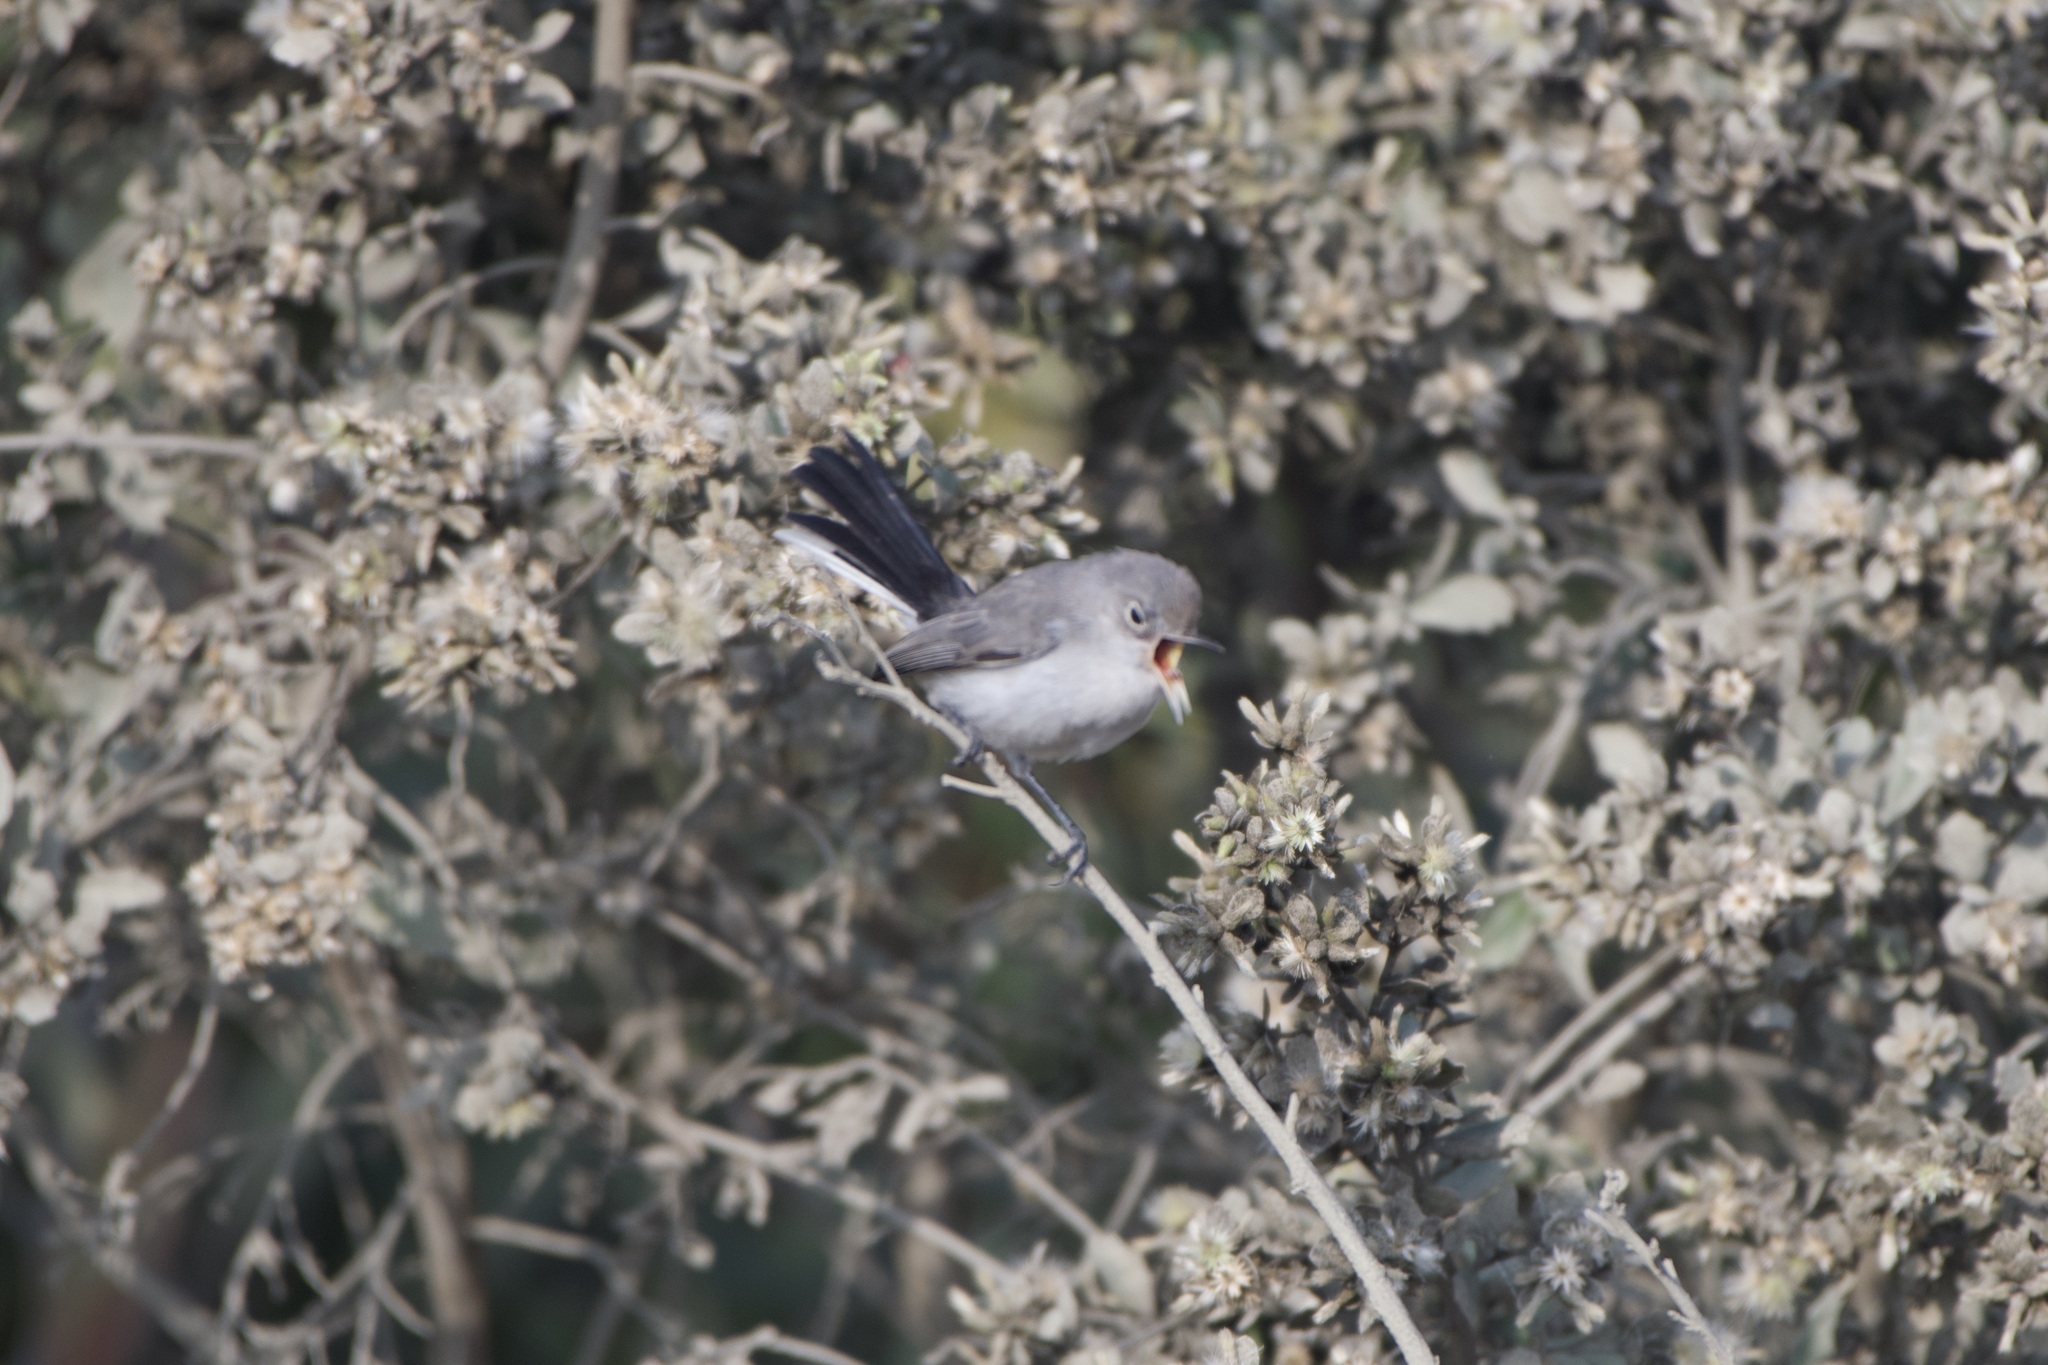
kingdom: Animalia
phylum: Chordata
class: Aves
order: Passeriformes
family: Polioptilidae
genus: Polioptila
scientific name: Polioptila caerulea
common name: Blue-gray gnatcatcher
